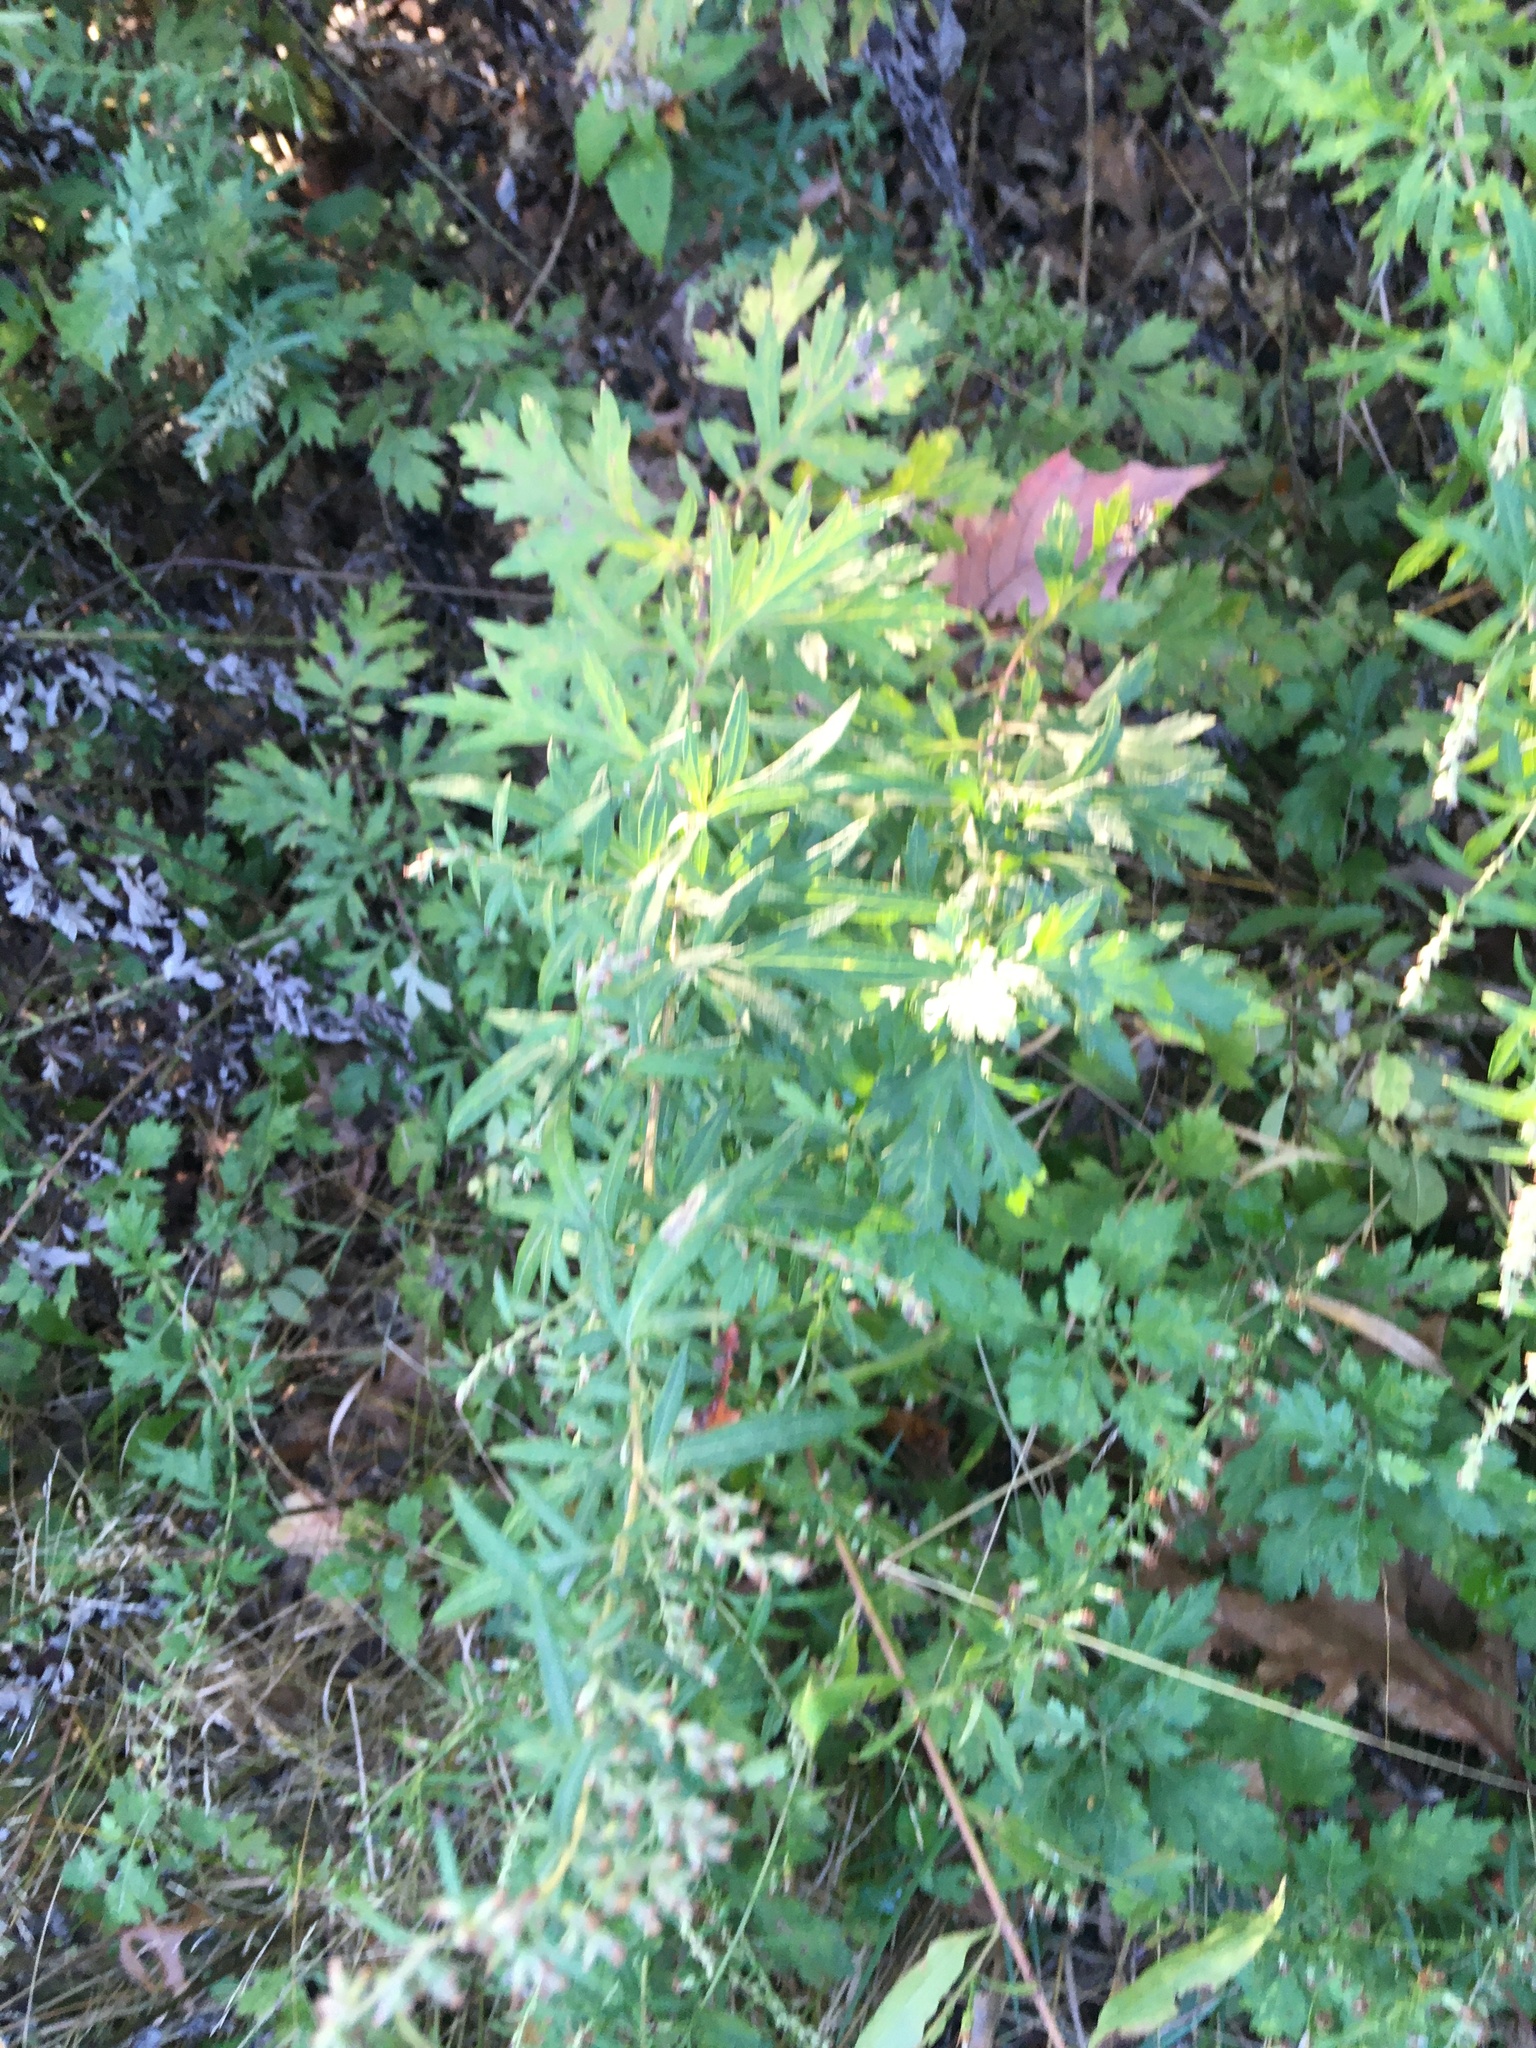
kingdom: Plantae
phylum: Tracheophyta
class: Magnoliopsida
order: Asterales
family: Asteraceae
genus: Artemisia
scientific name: Artemisia vulgaris
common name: Mugwort
